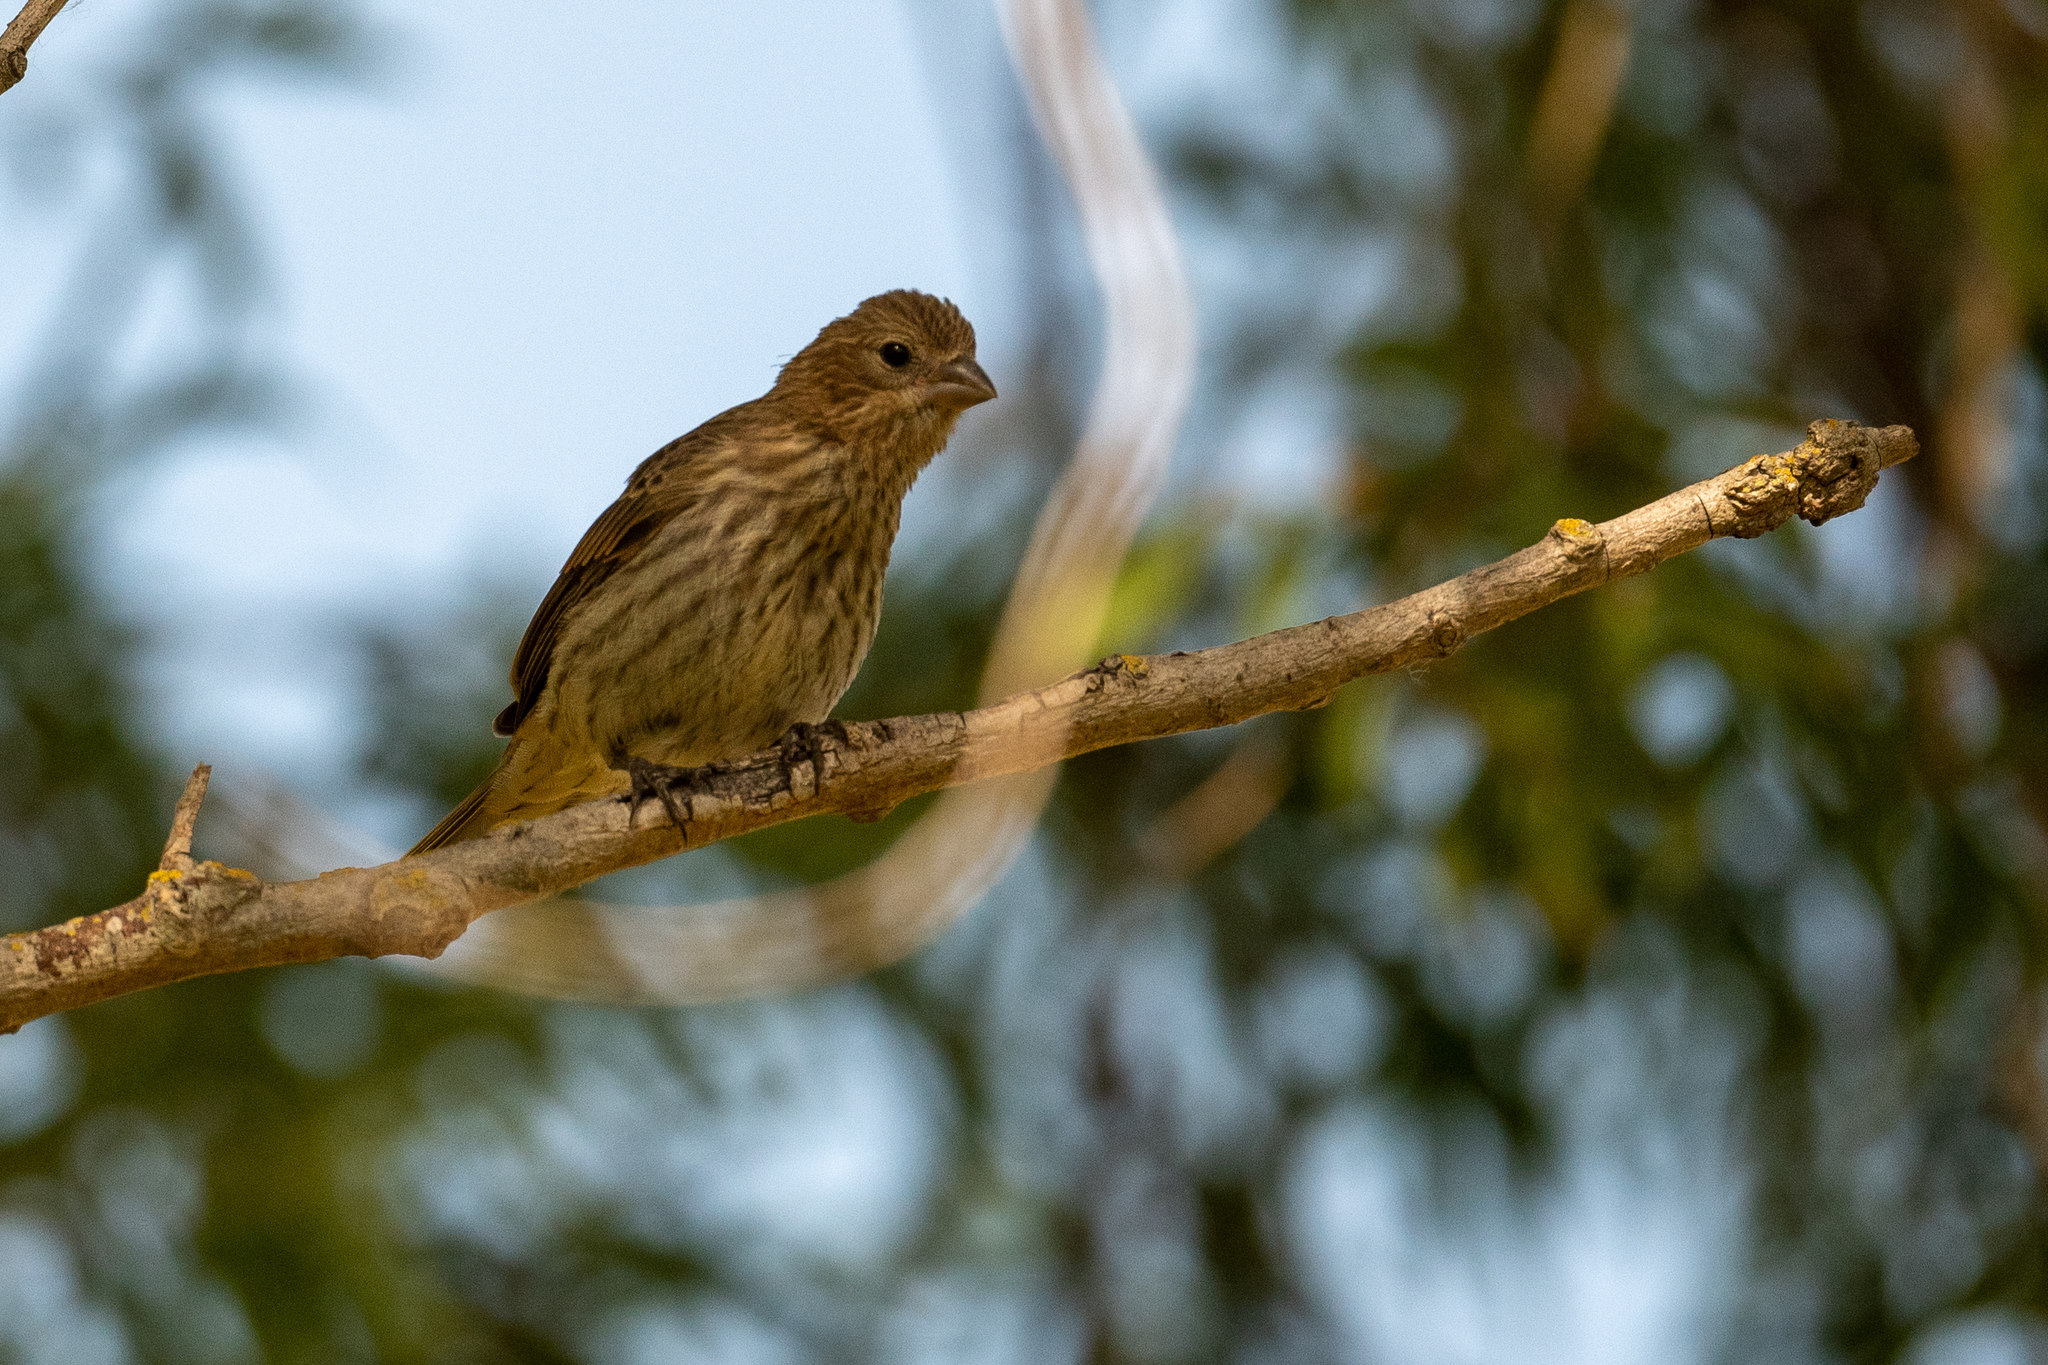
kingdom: Animalia
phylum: Chordata
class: Aves
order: Passeriformes
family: Fringillidae
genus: Haemorhous
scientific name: Haemorhous mexicanus
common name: House finch
